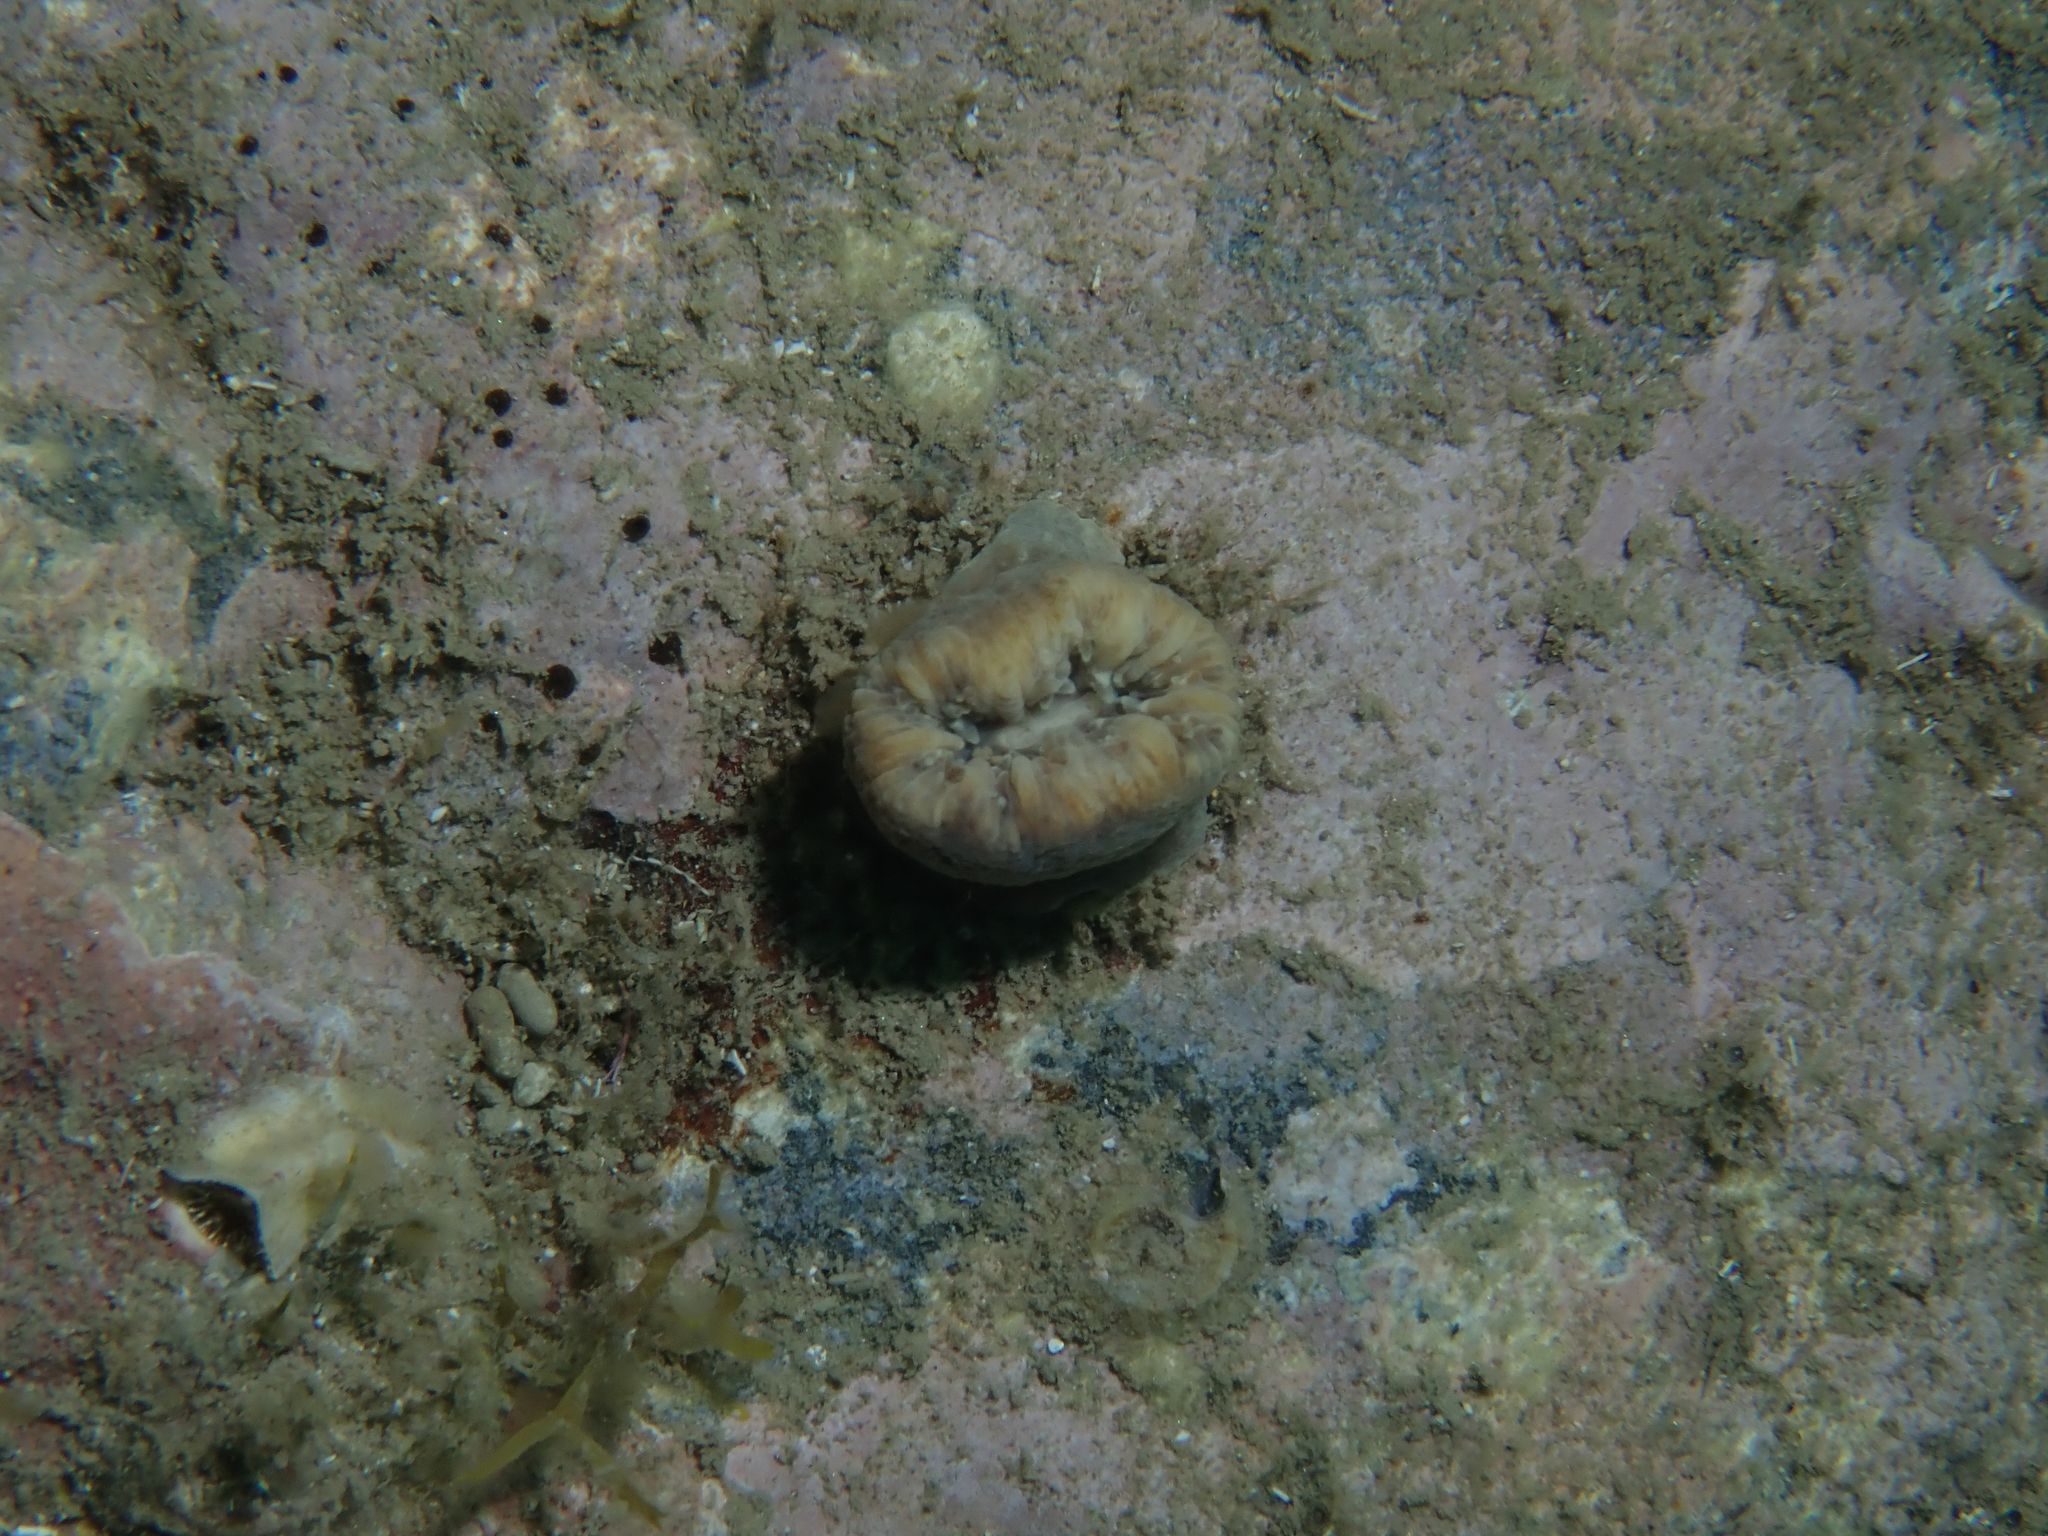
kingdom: Animalia
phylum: Cnidaria
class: Anthozoa
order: Scleractinia
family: Dendrophylliidae
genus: Balanophyllia
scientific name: Balanophyllia europaea
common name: Scarlet coral
